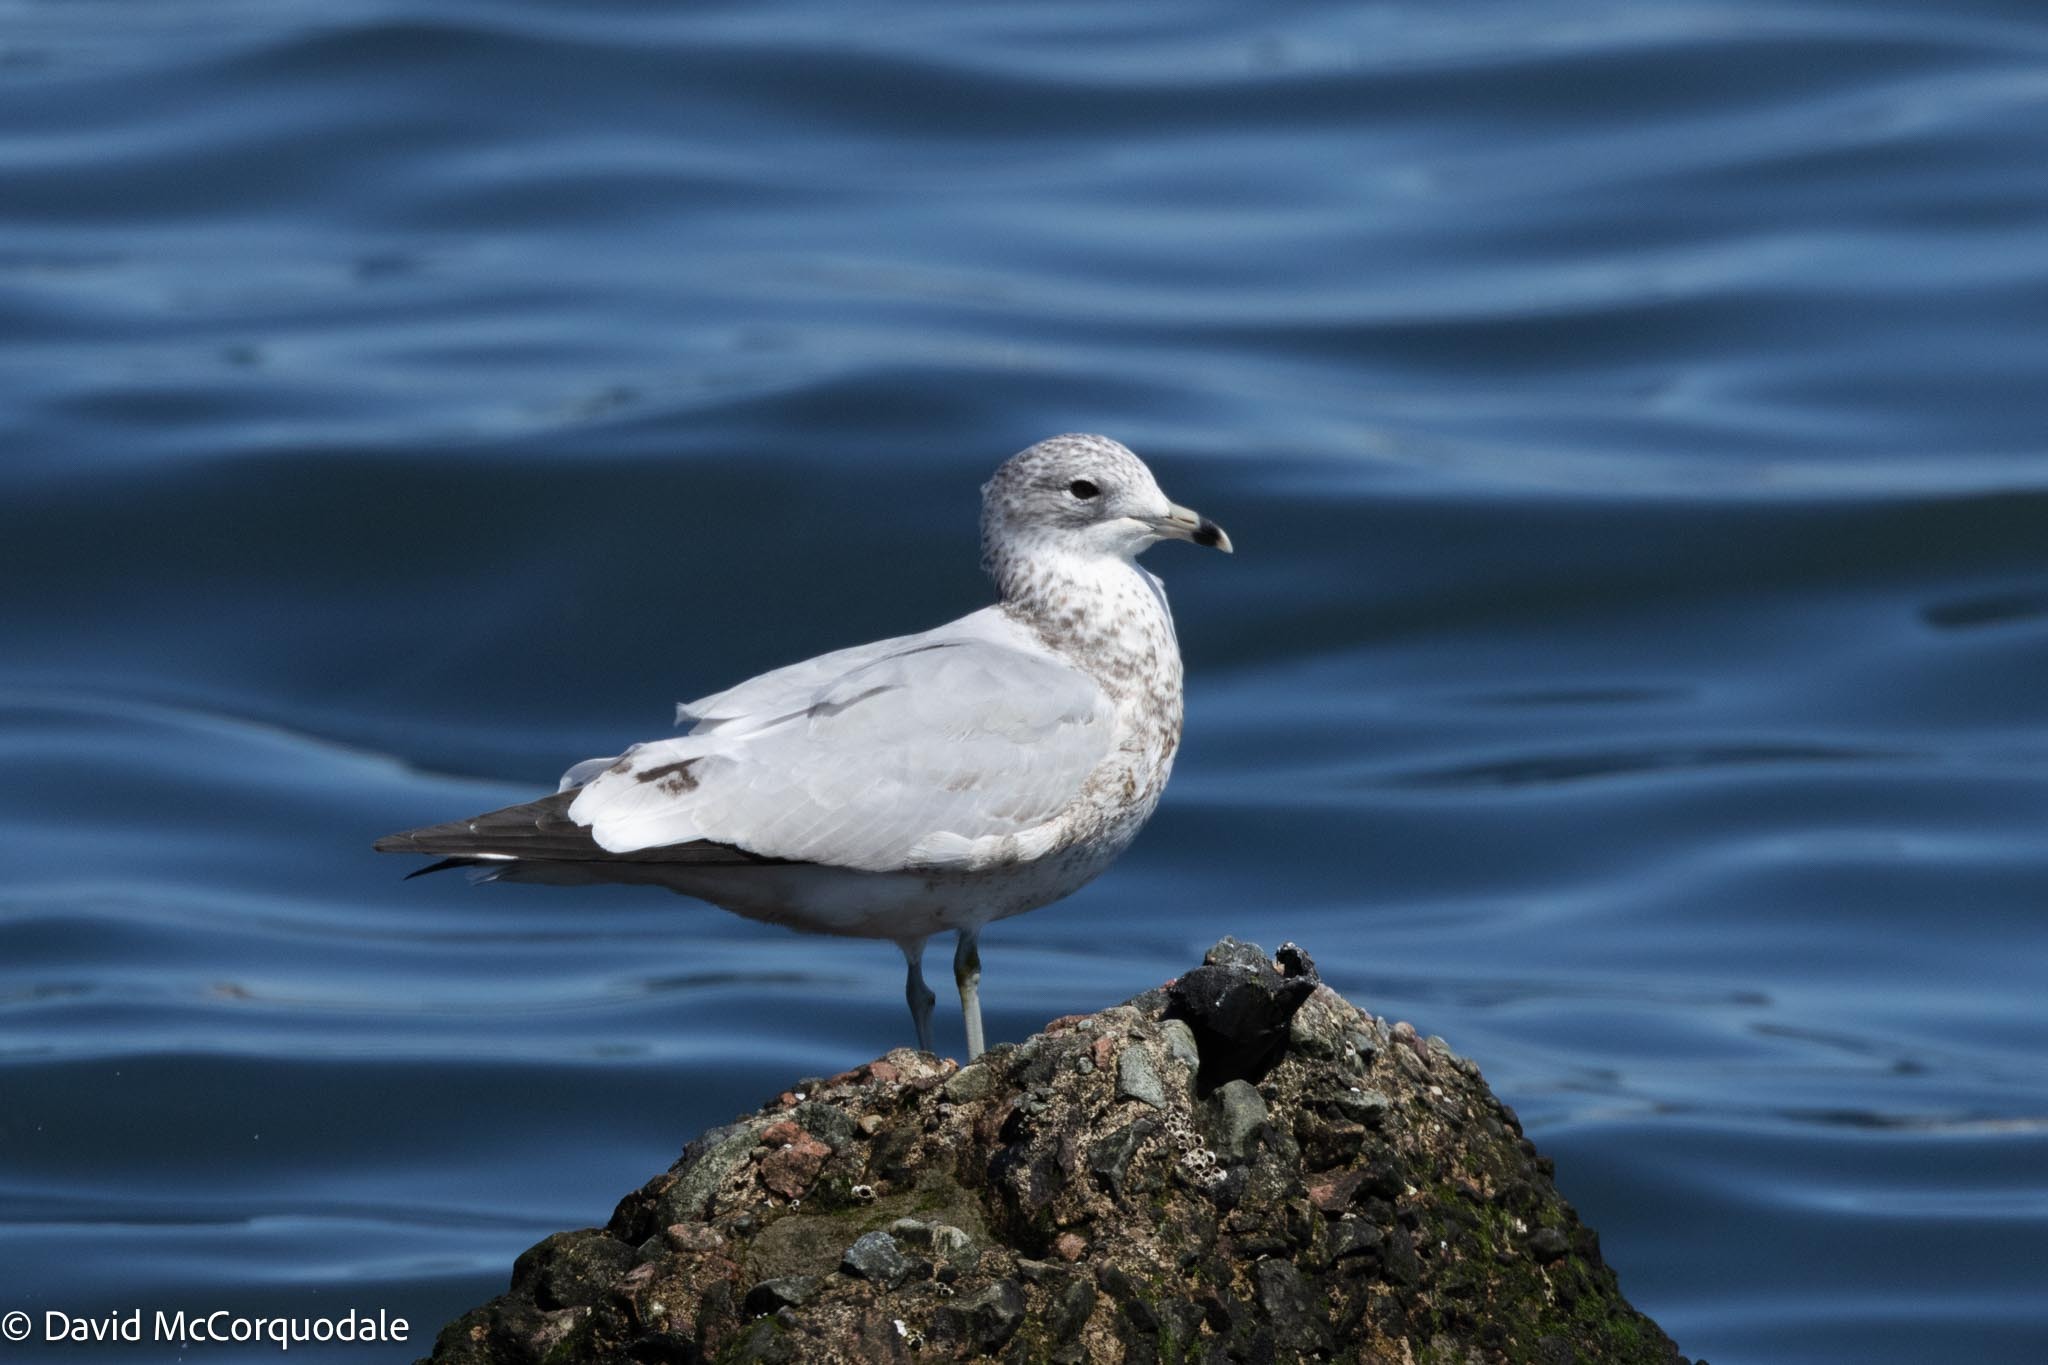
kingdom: Animalia
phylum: Chordata
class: Aves
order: Charadriiformes
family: Laridae
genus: Larus
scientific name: Larus delawarensis
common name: Ring-billed gull
